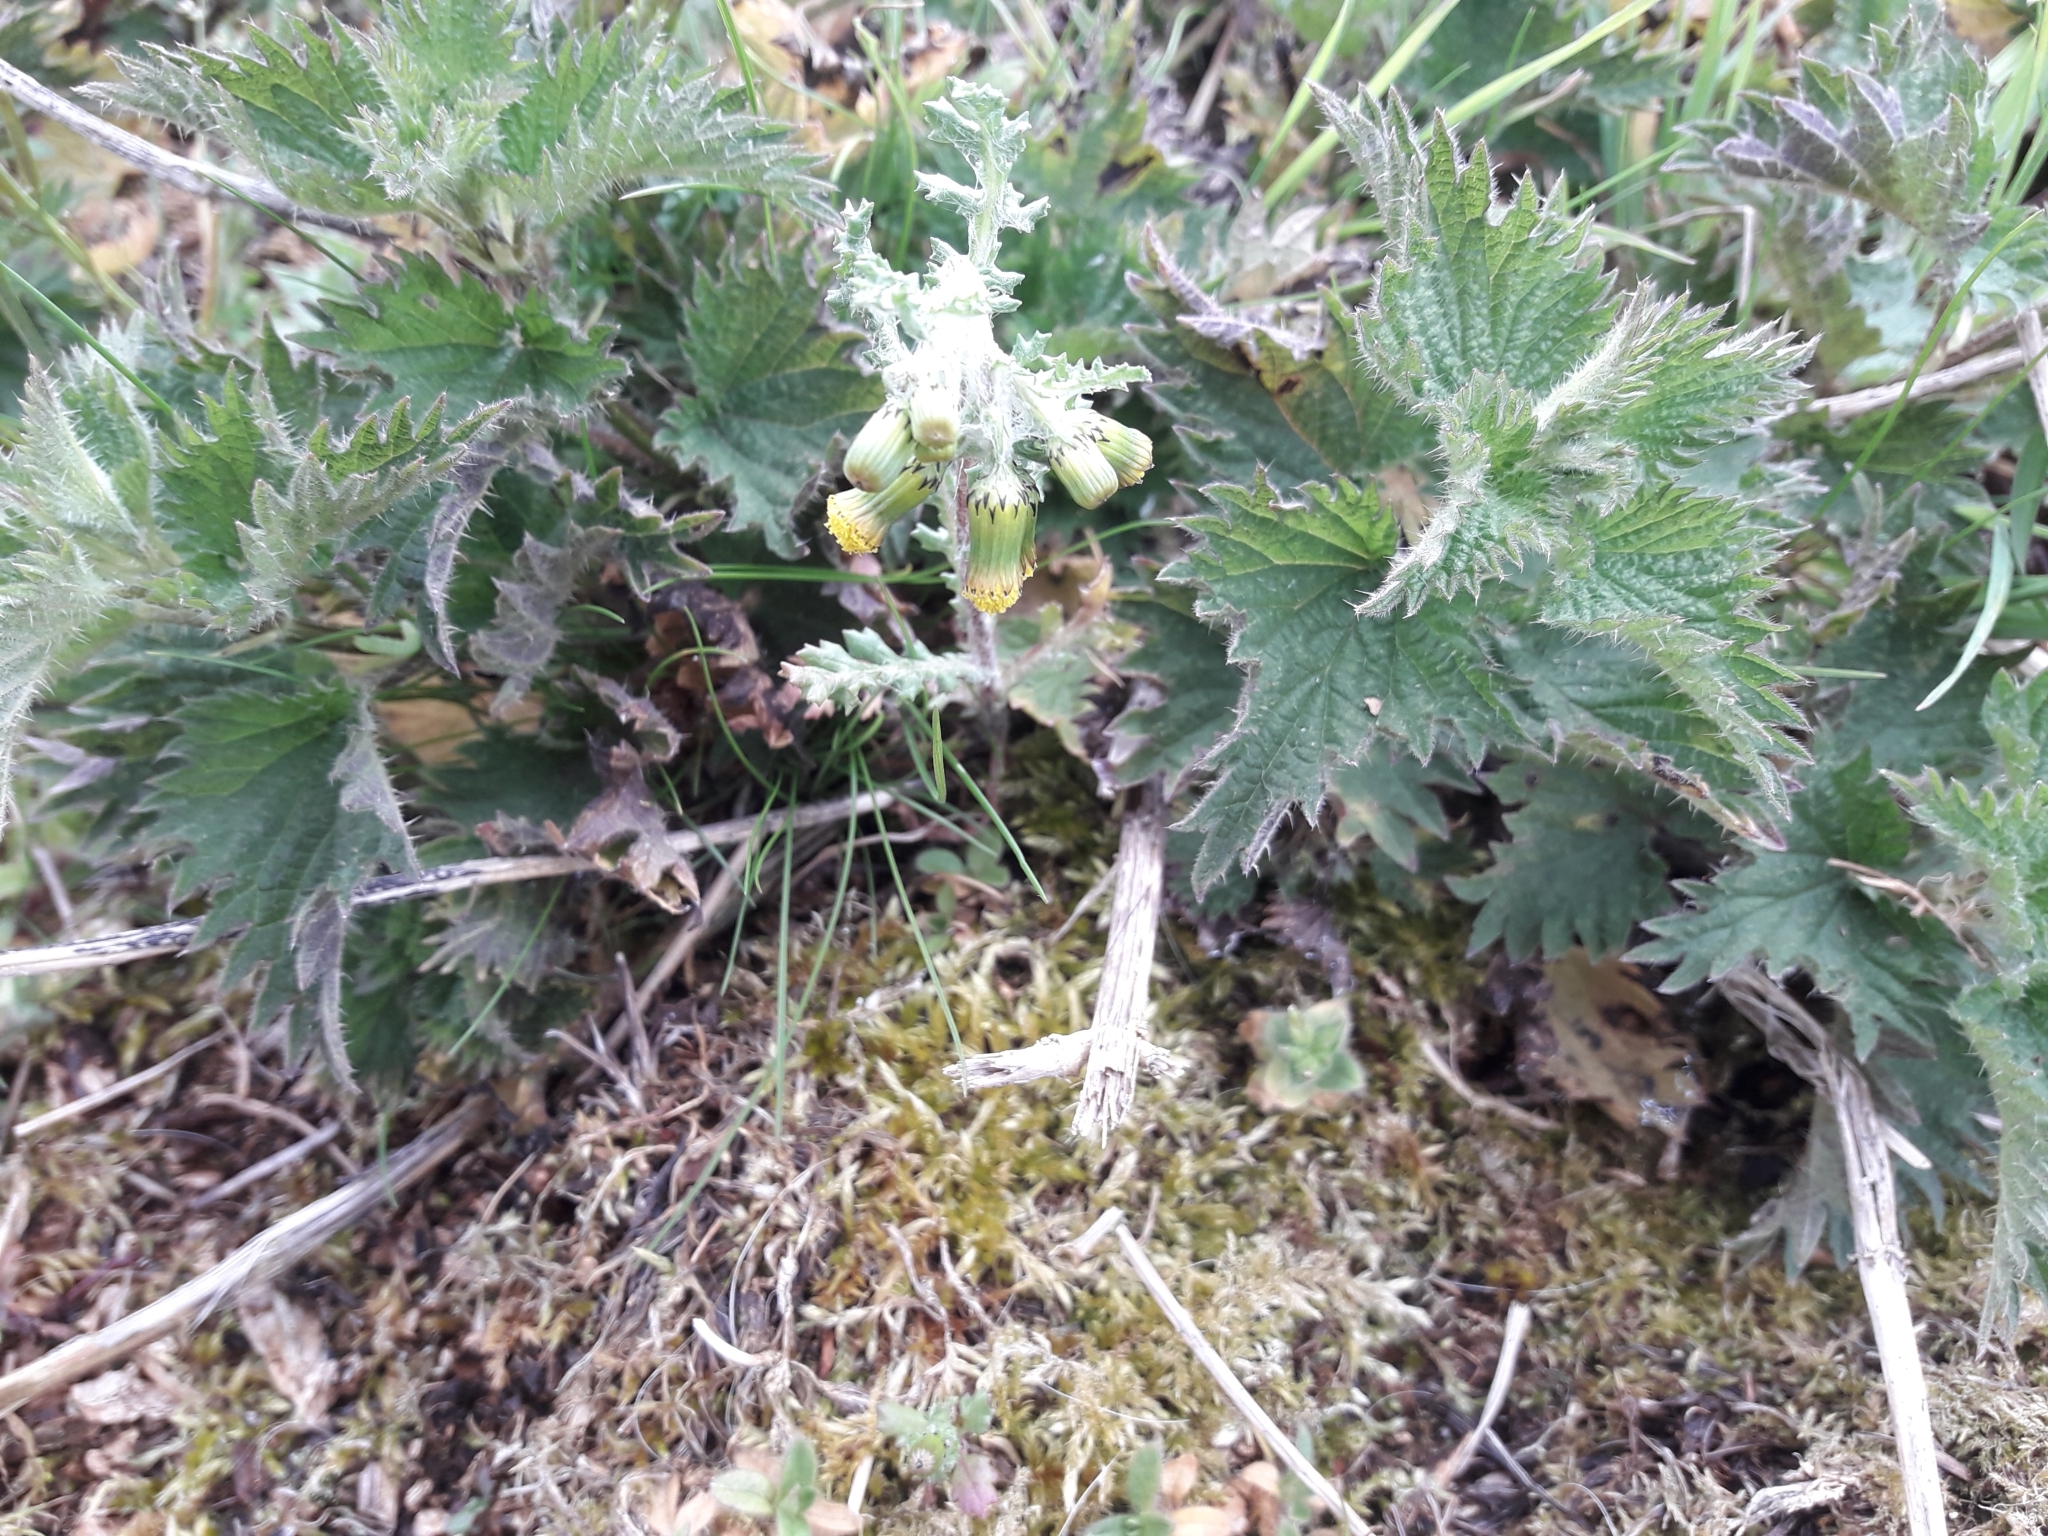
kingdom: Plantae
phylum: Tracheophyta
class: Magnoliopsida
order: Asterales
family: Asteraceae
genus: Senecio
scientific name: Senecio vulgaris
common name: Old-man-in-the-spring
